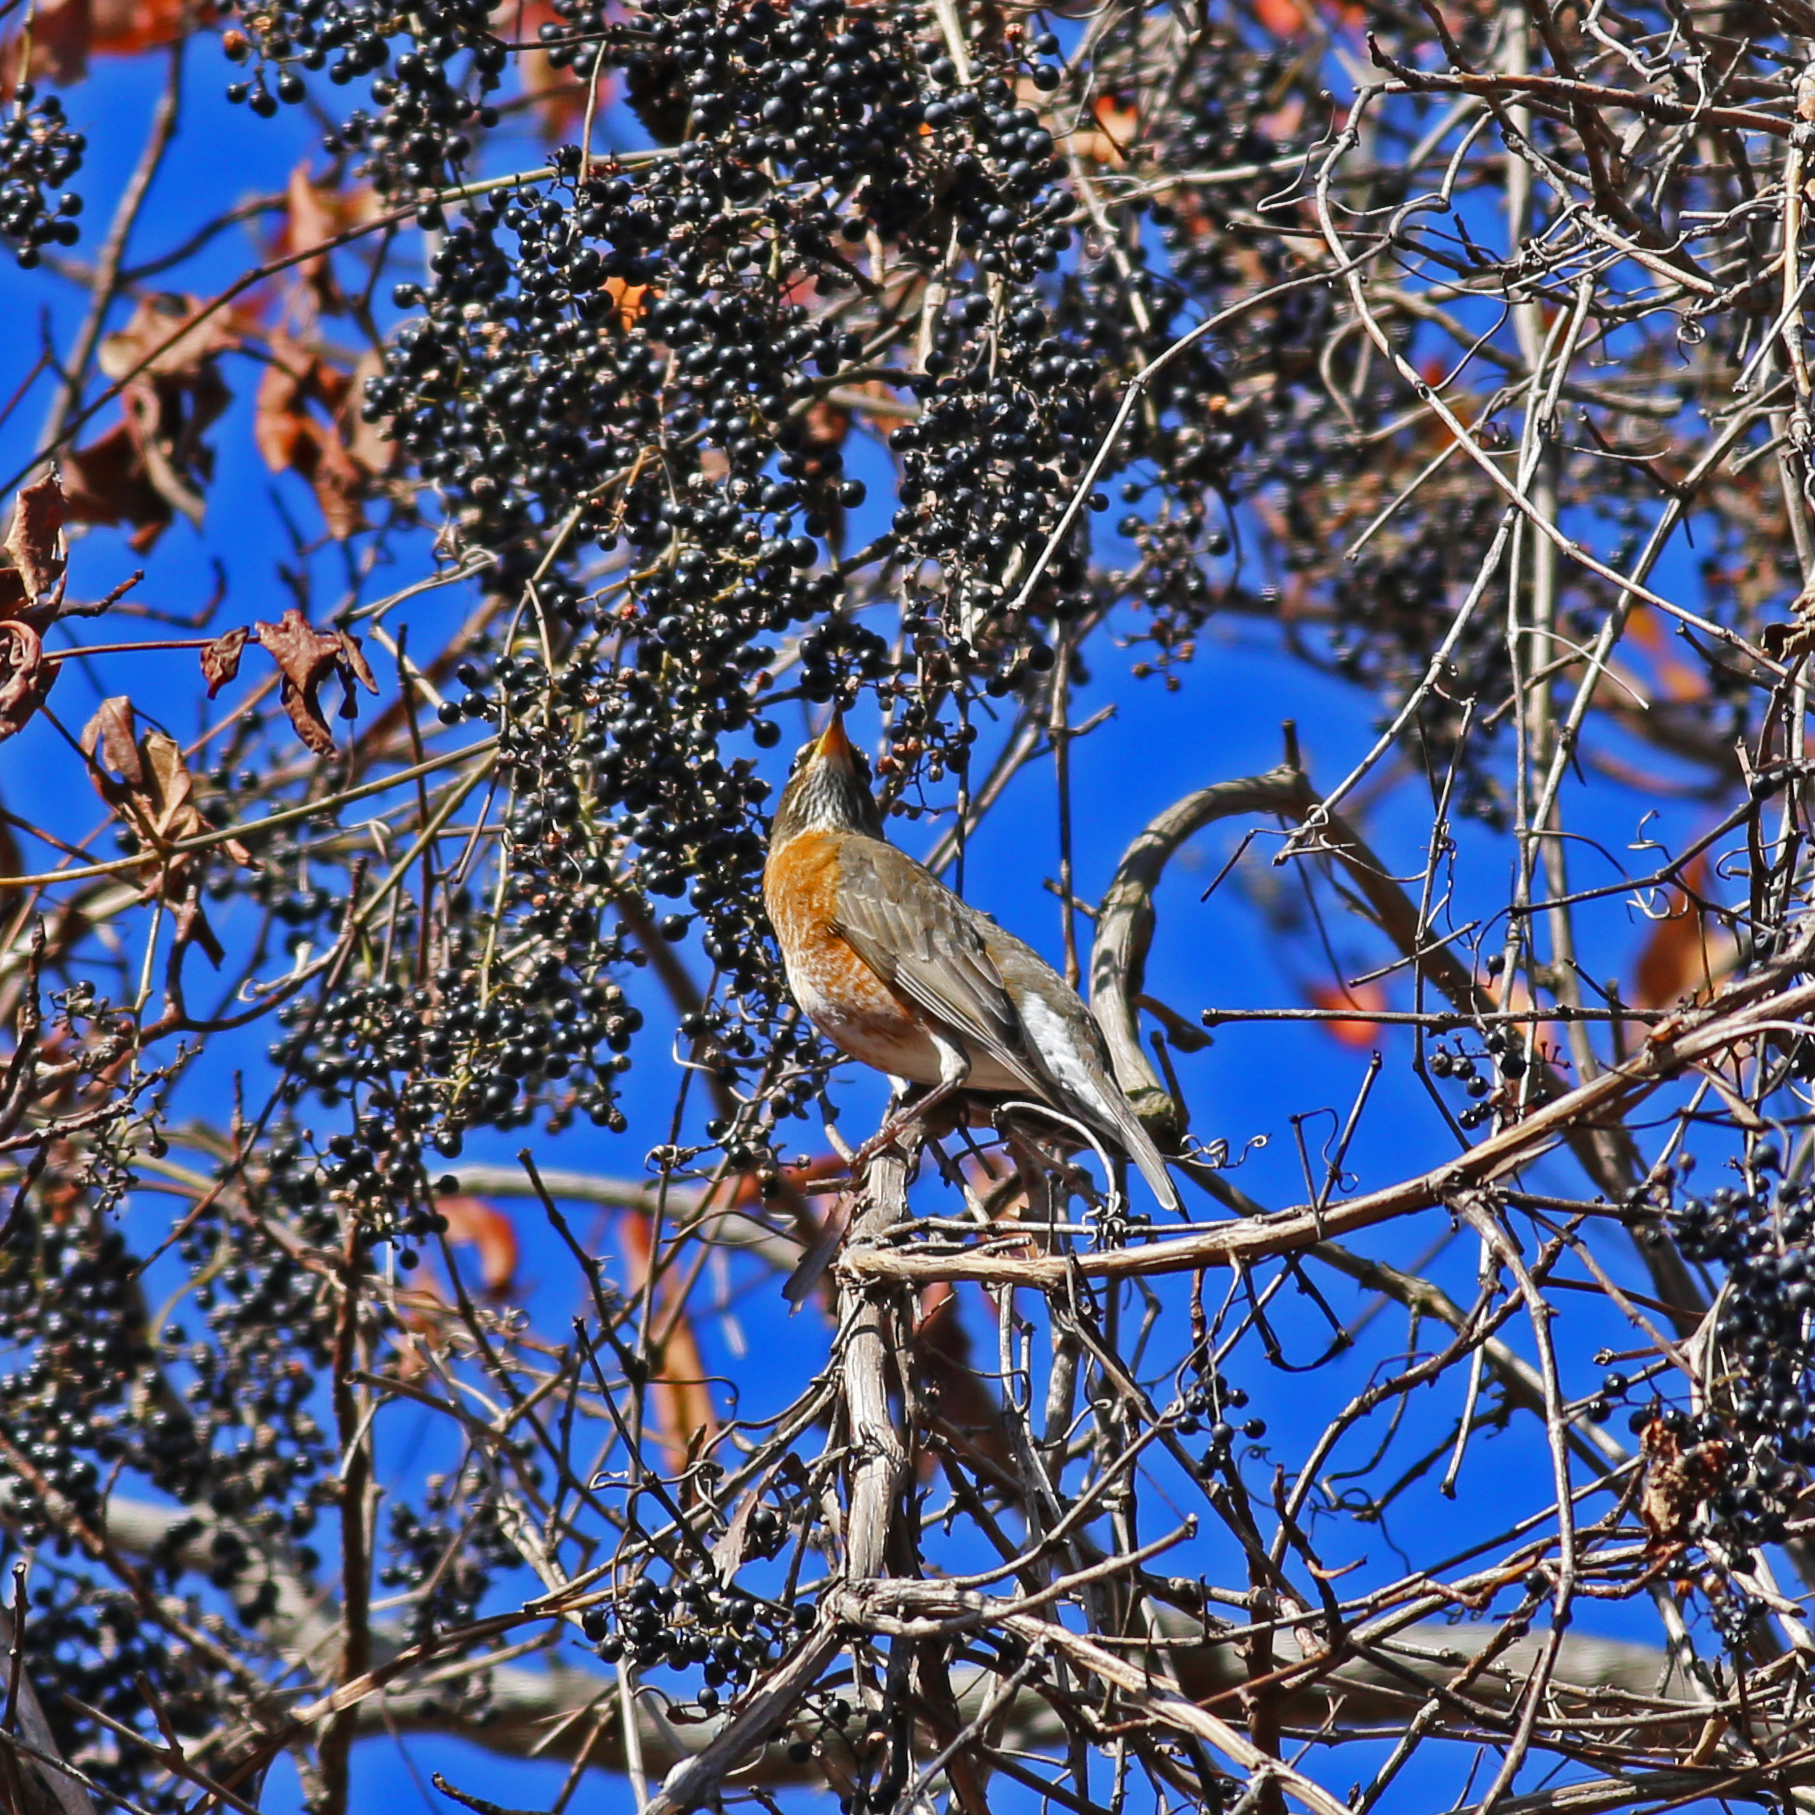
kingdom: Animalia
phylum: Chordata
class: Aves
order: Passeriformes
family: Turdidae
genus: Turdus
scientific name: Turdus migratorius
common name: American robin
